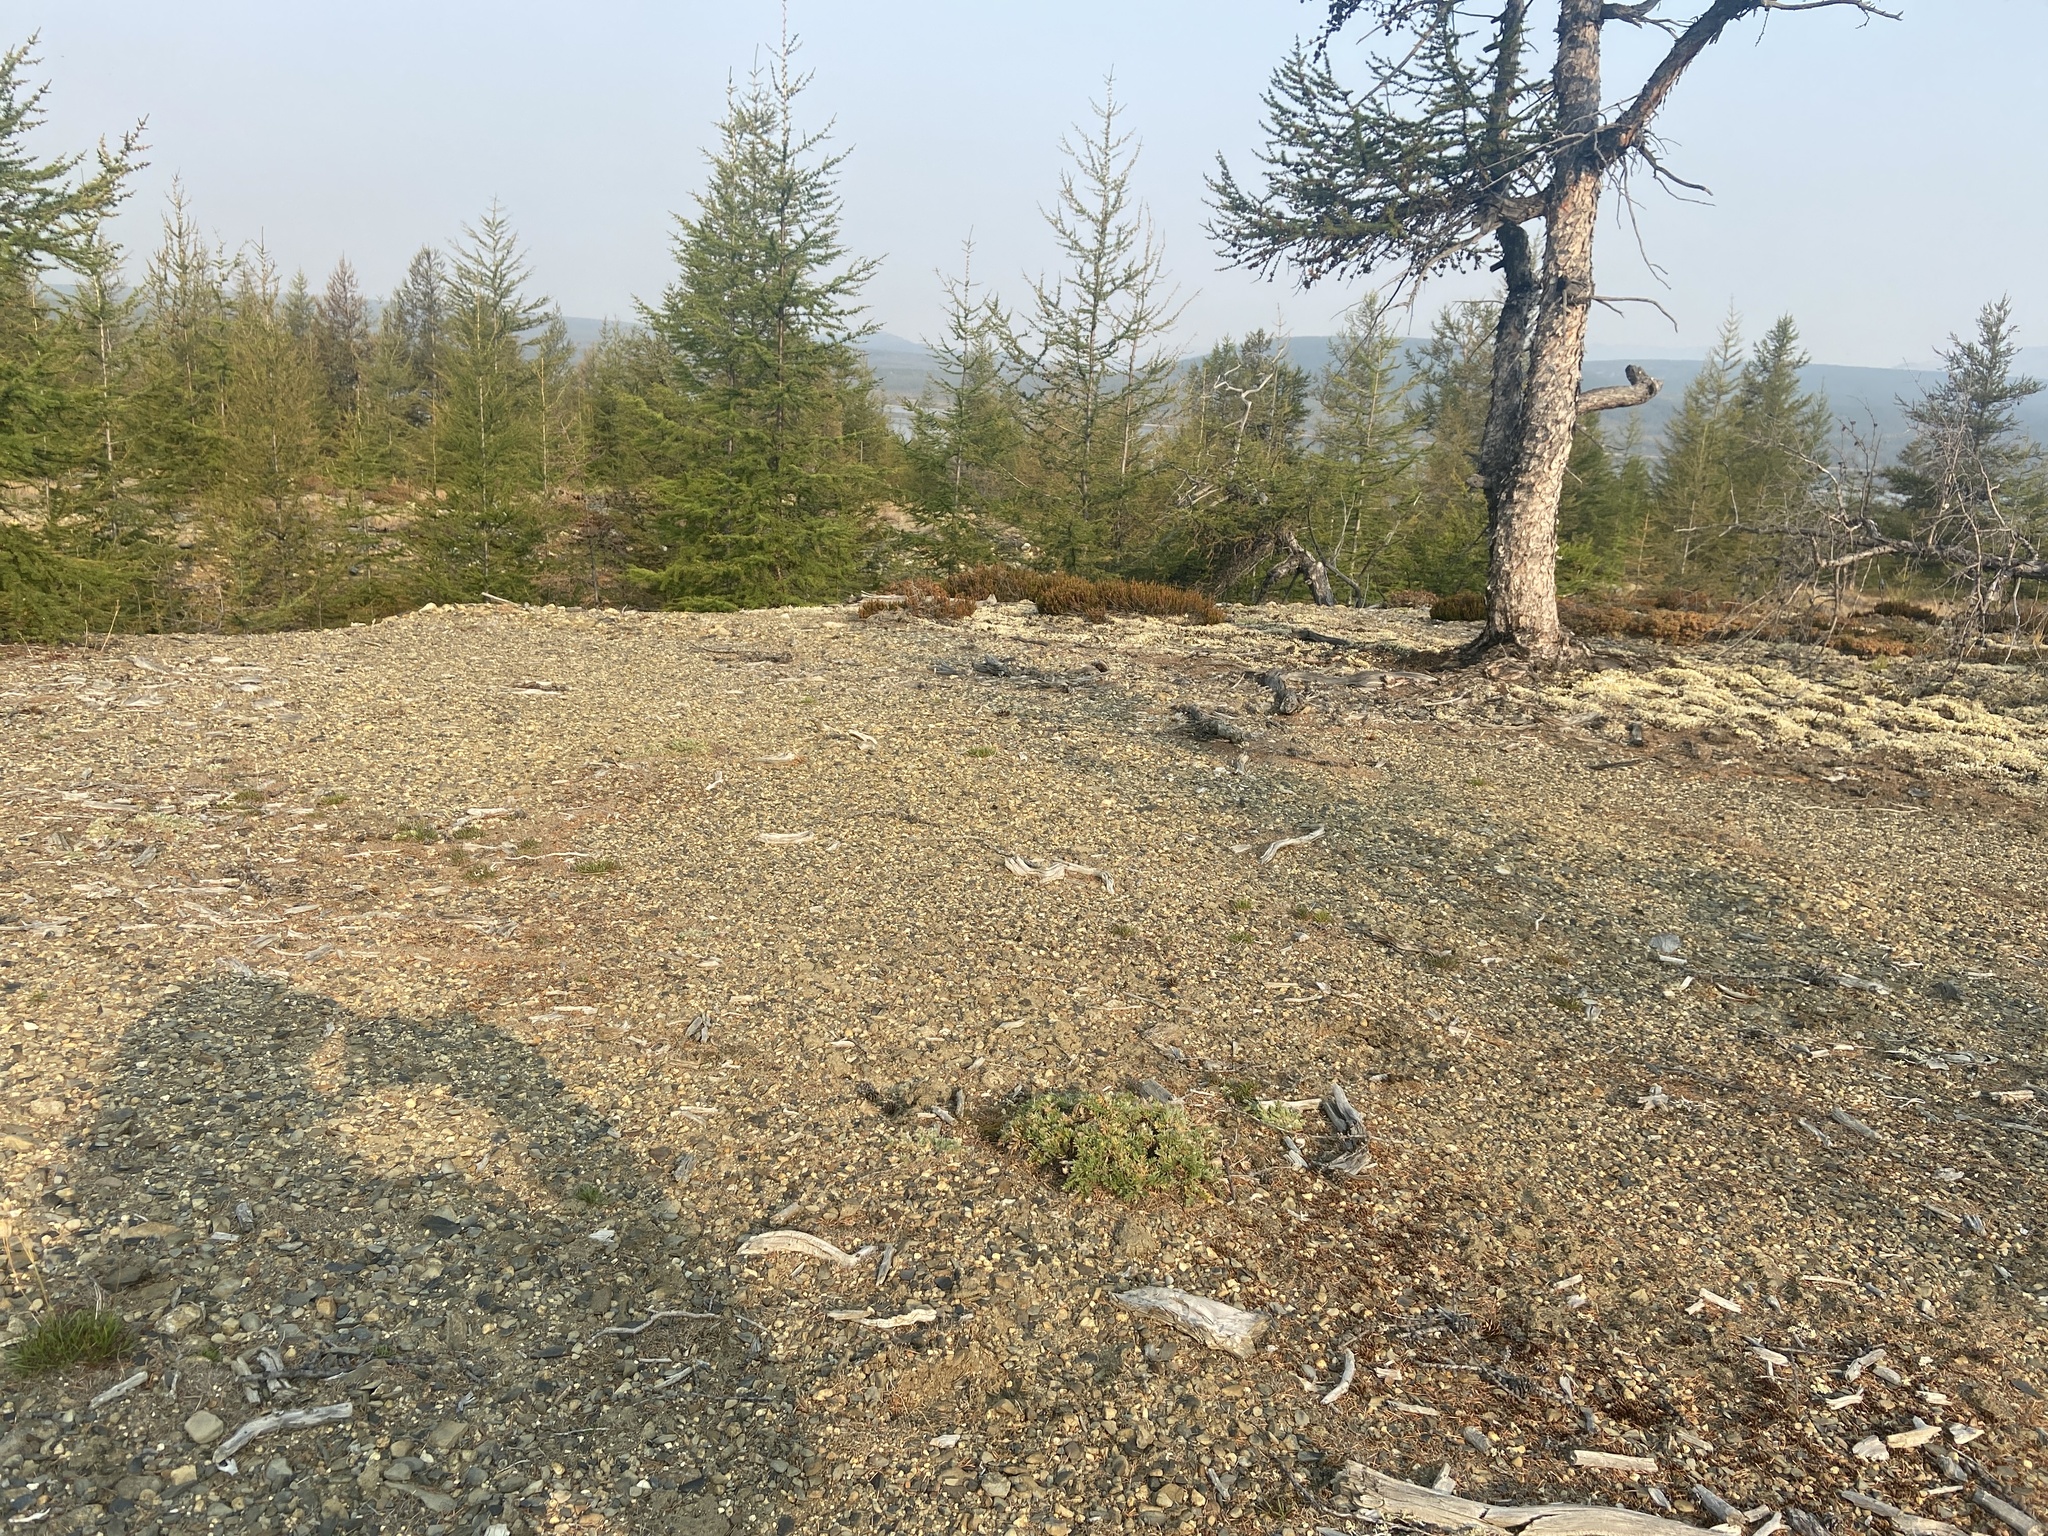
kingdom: Plantae
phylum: Tracheophyta
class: Magnoliopsida
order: Fabales
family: Fabaceae
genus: Oxytropis
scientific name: Oxytropis susumanica
